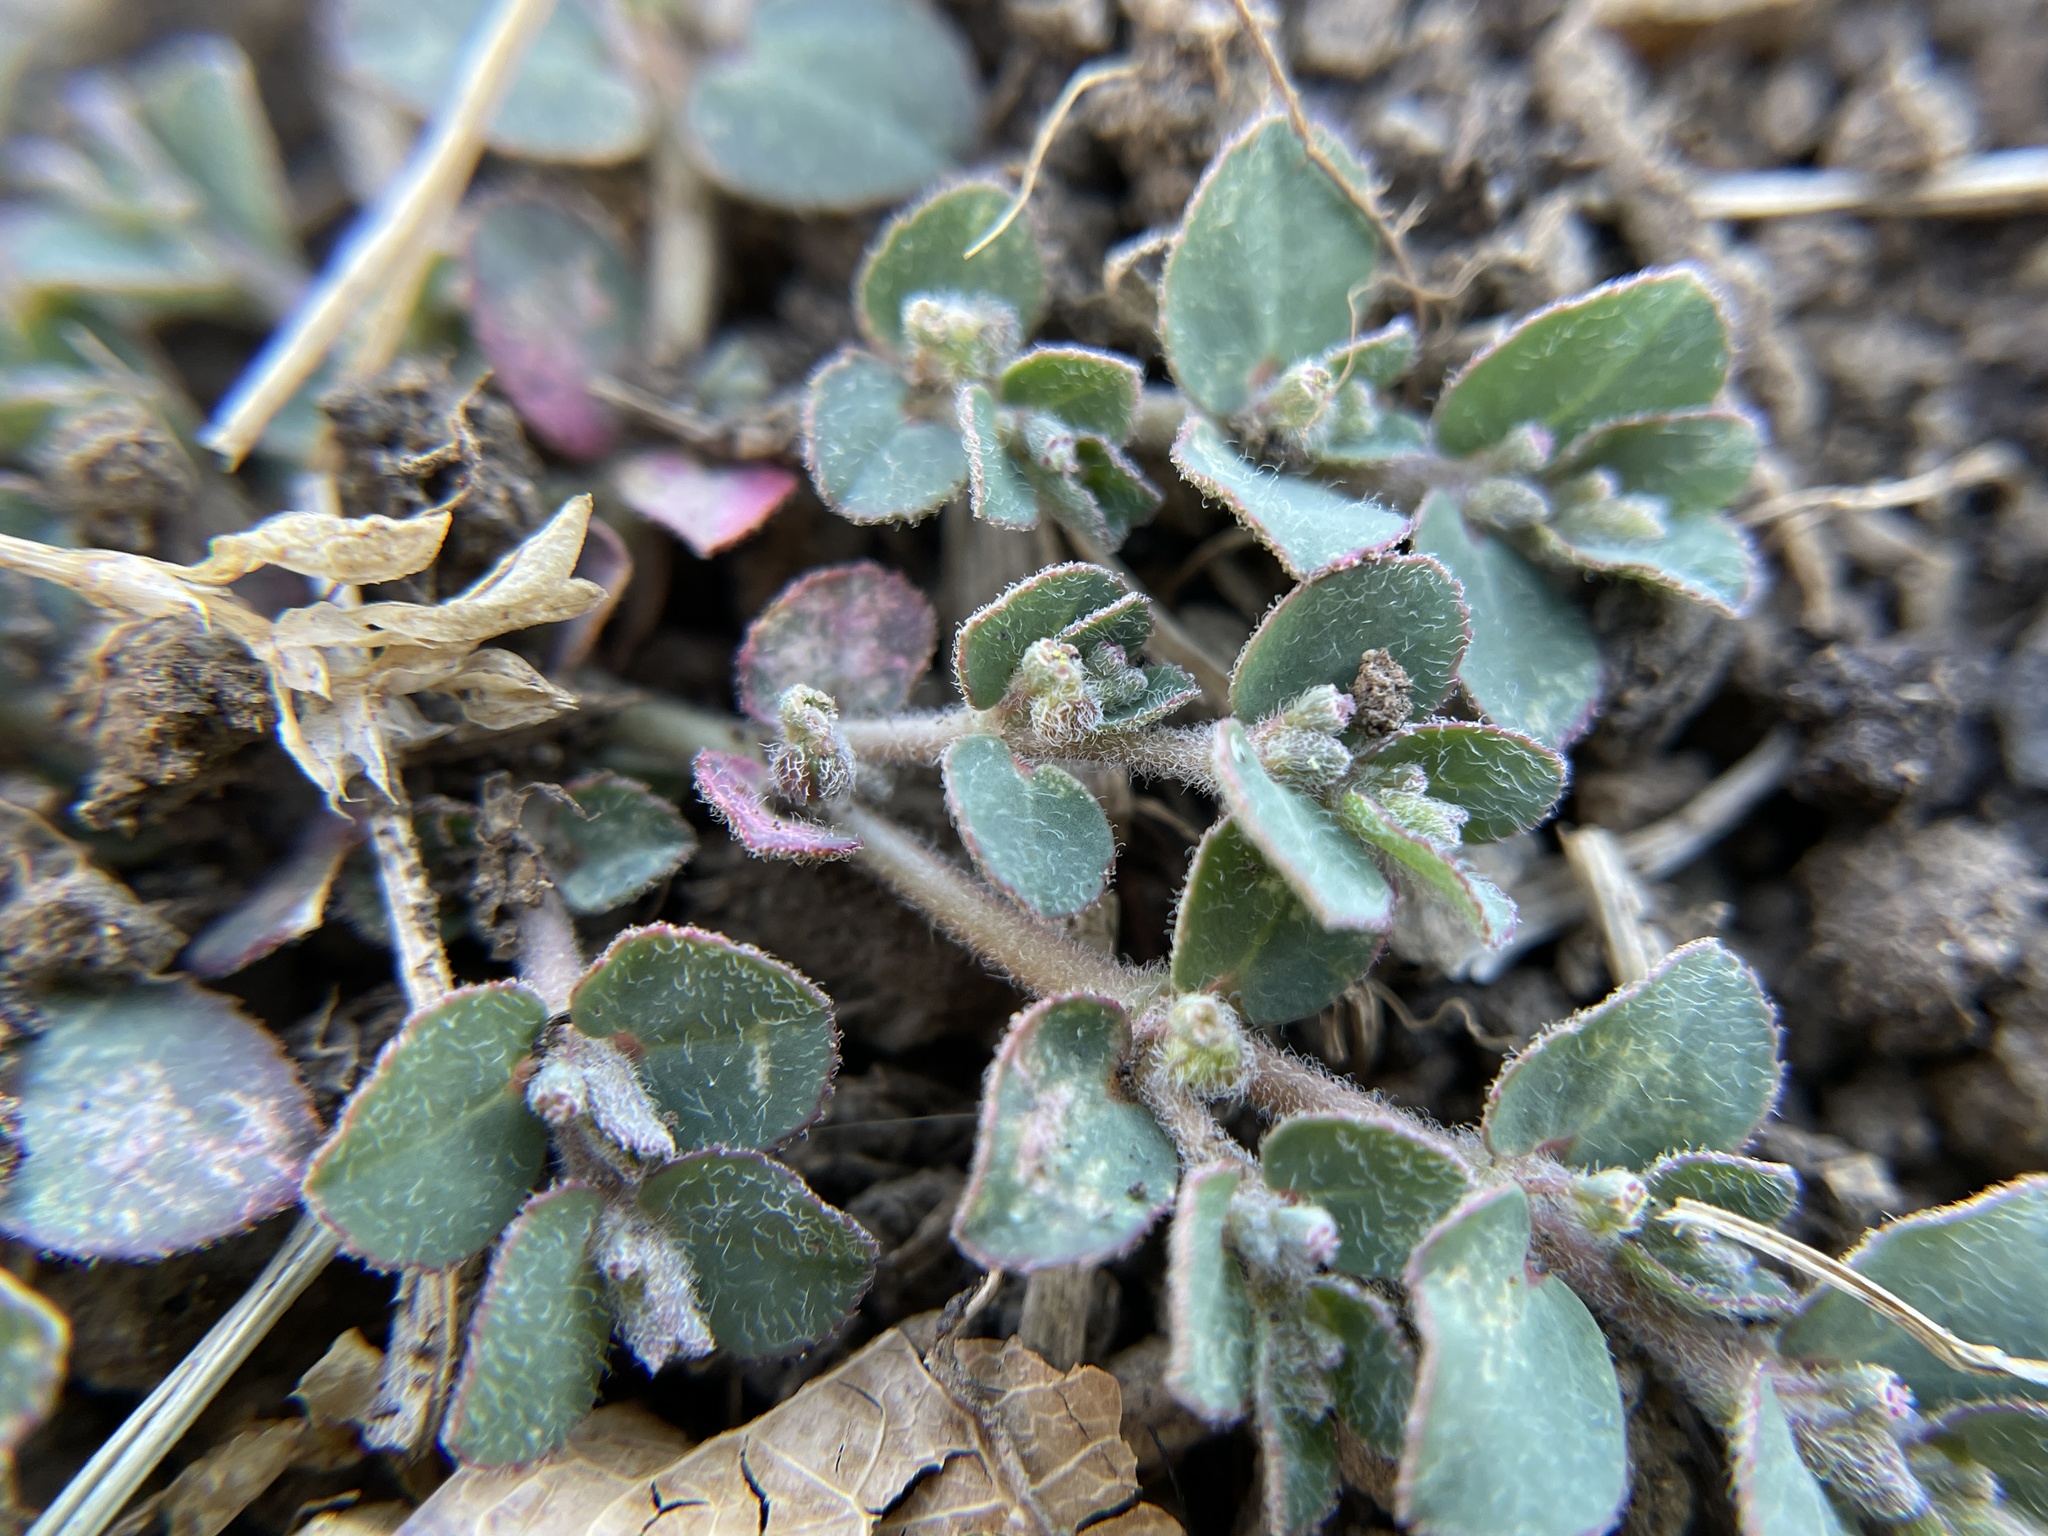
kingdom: Plantae
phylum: Tracheophyta
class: Magnoliopsida
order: Malpighiales
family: Euphorbiaceae
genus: Euphorbia
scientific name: Euphorbia prostrata
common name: Prostrate sandmat
